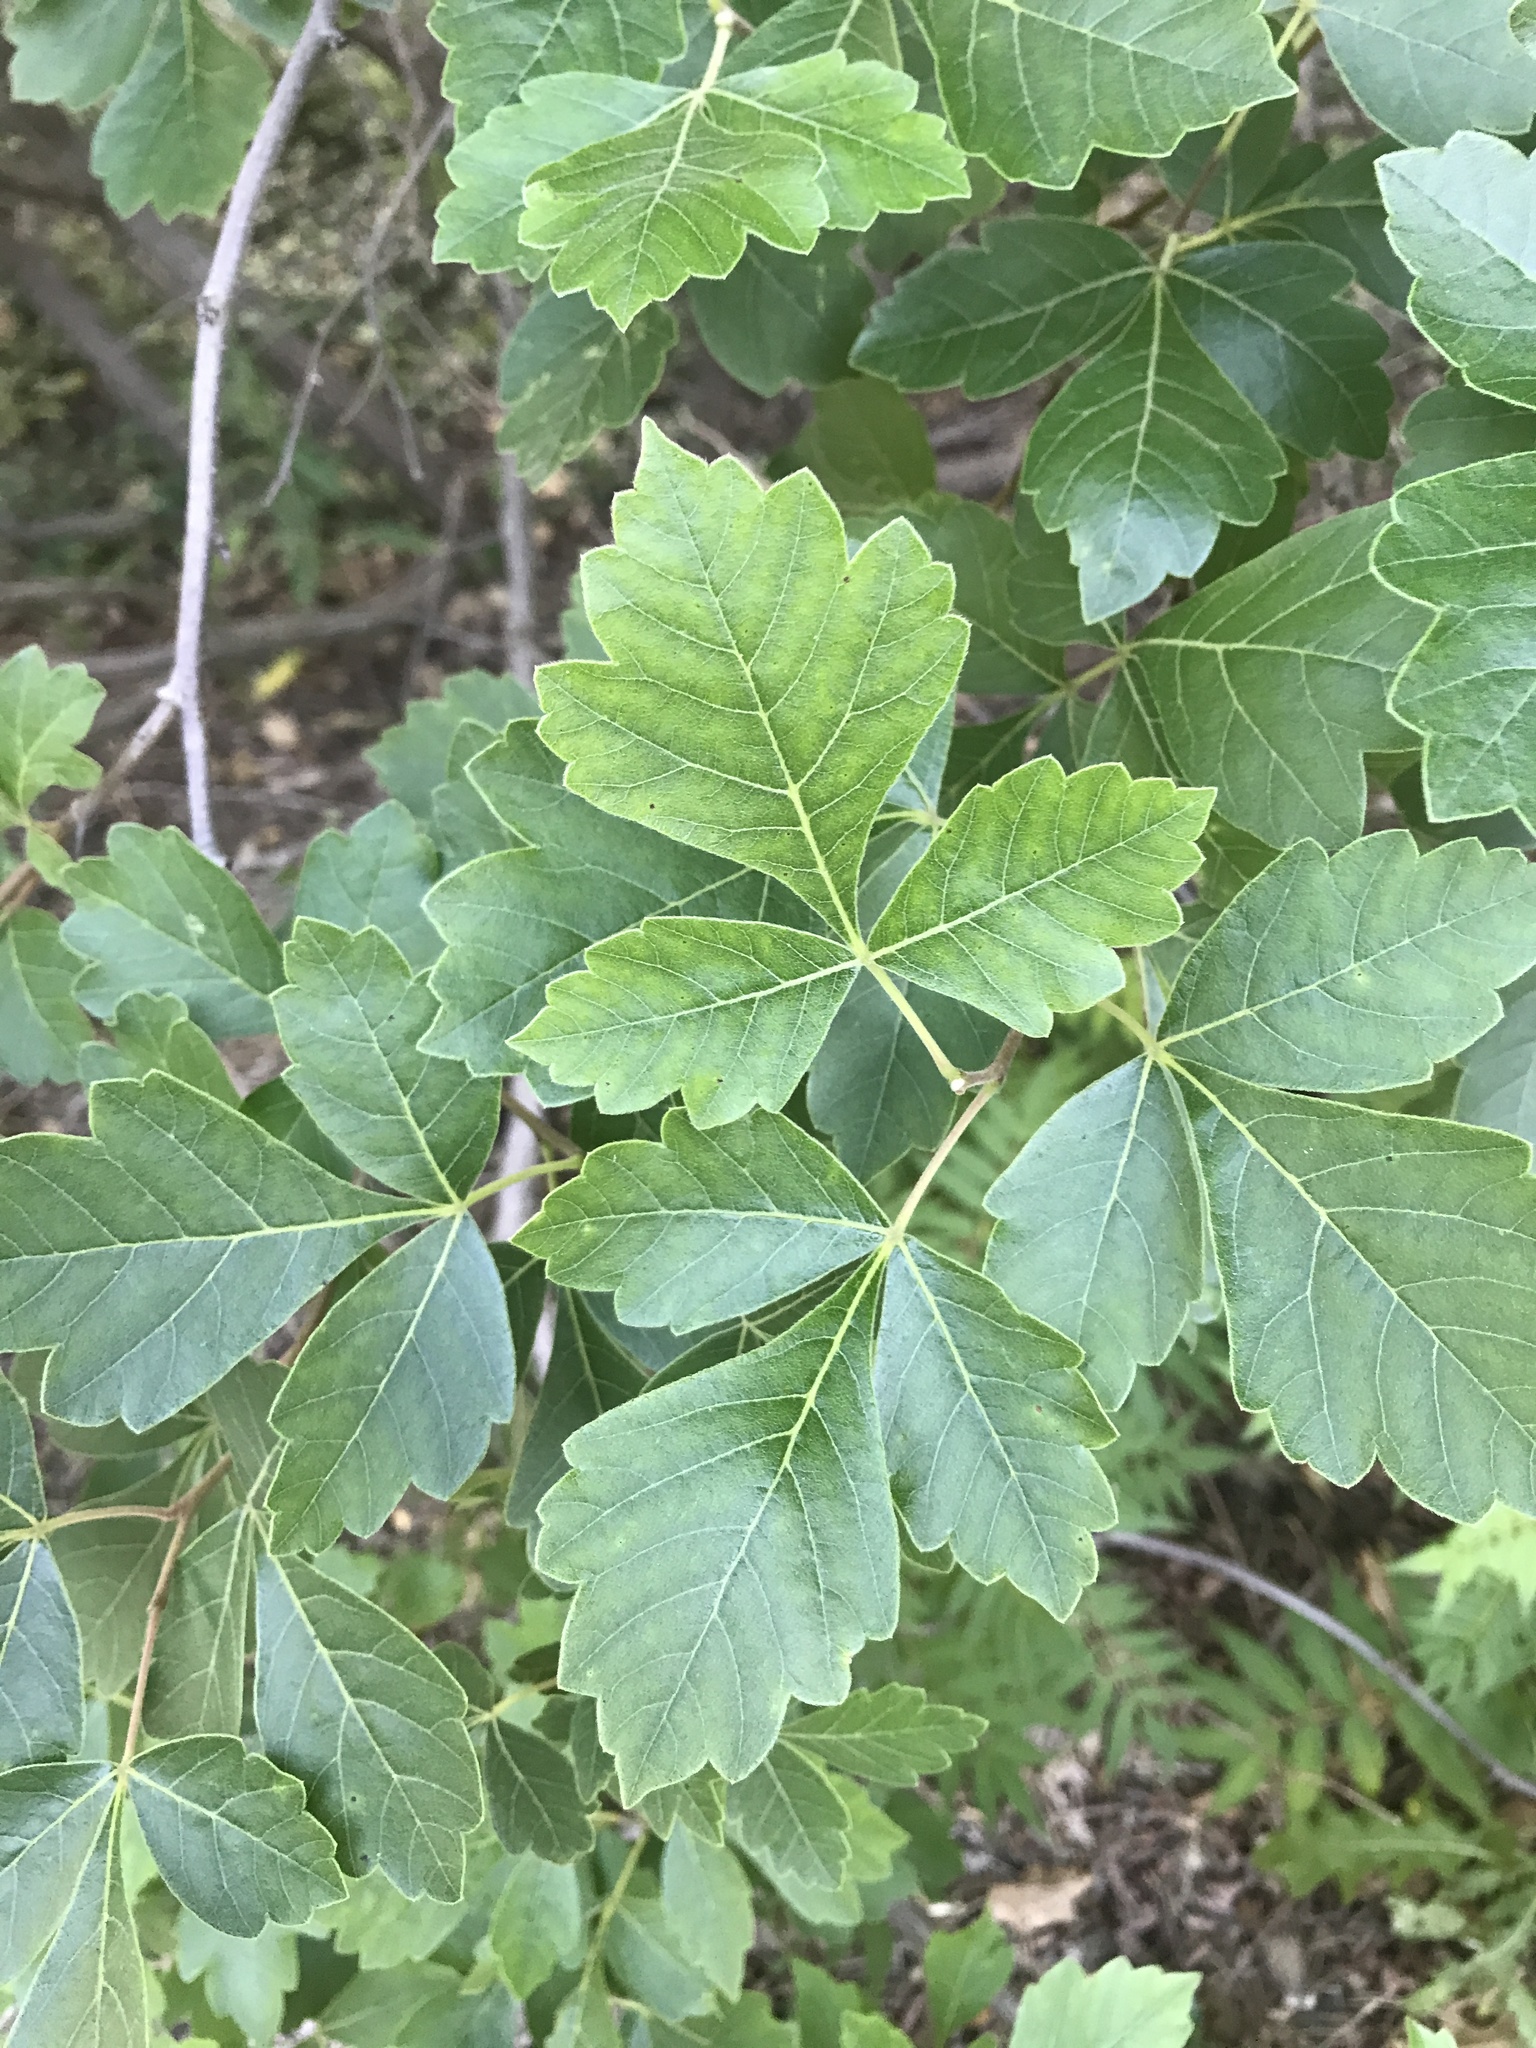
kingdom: Plantae
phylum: Tracheophyta
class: Magnoliopsida
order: Sapindales
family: Anacardiaceae
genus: Rhus
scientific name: Rhus aromatica
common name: Aromatic sumac
